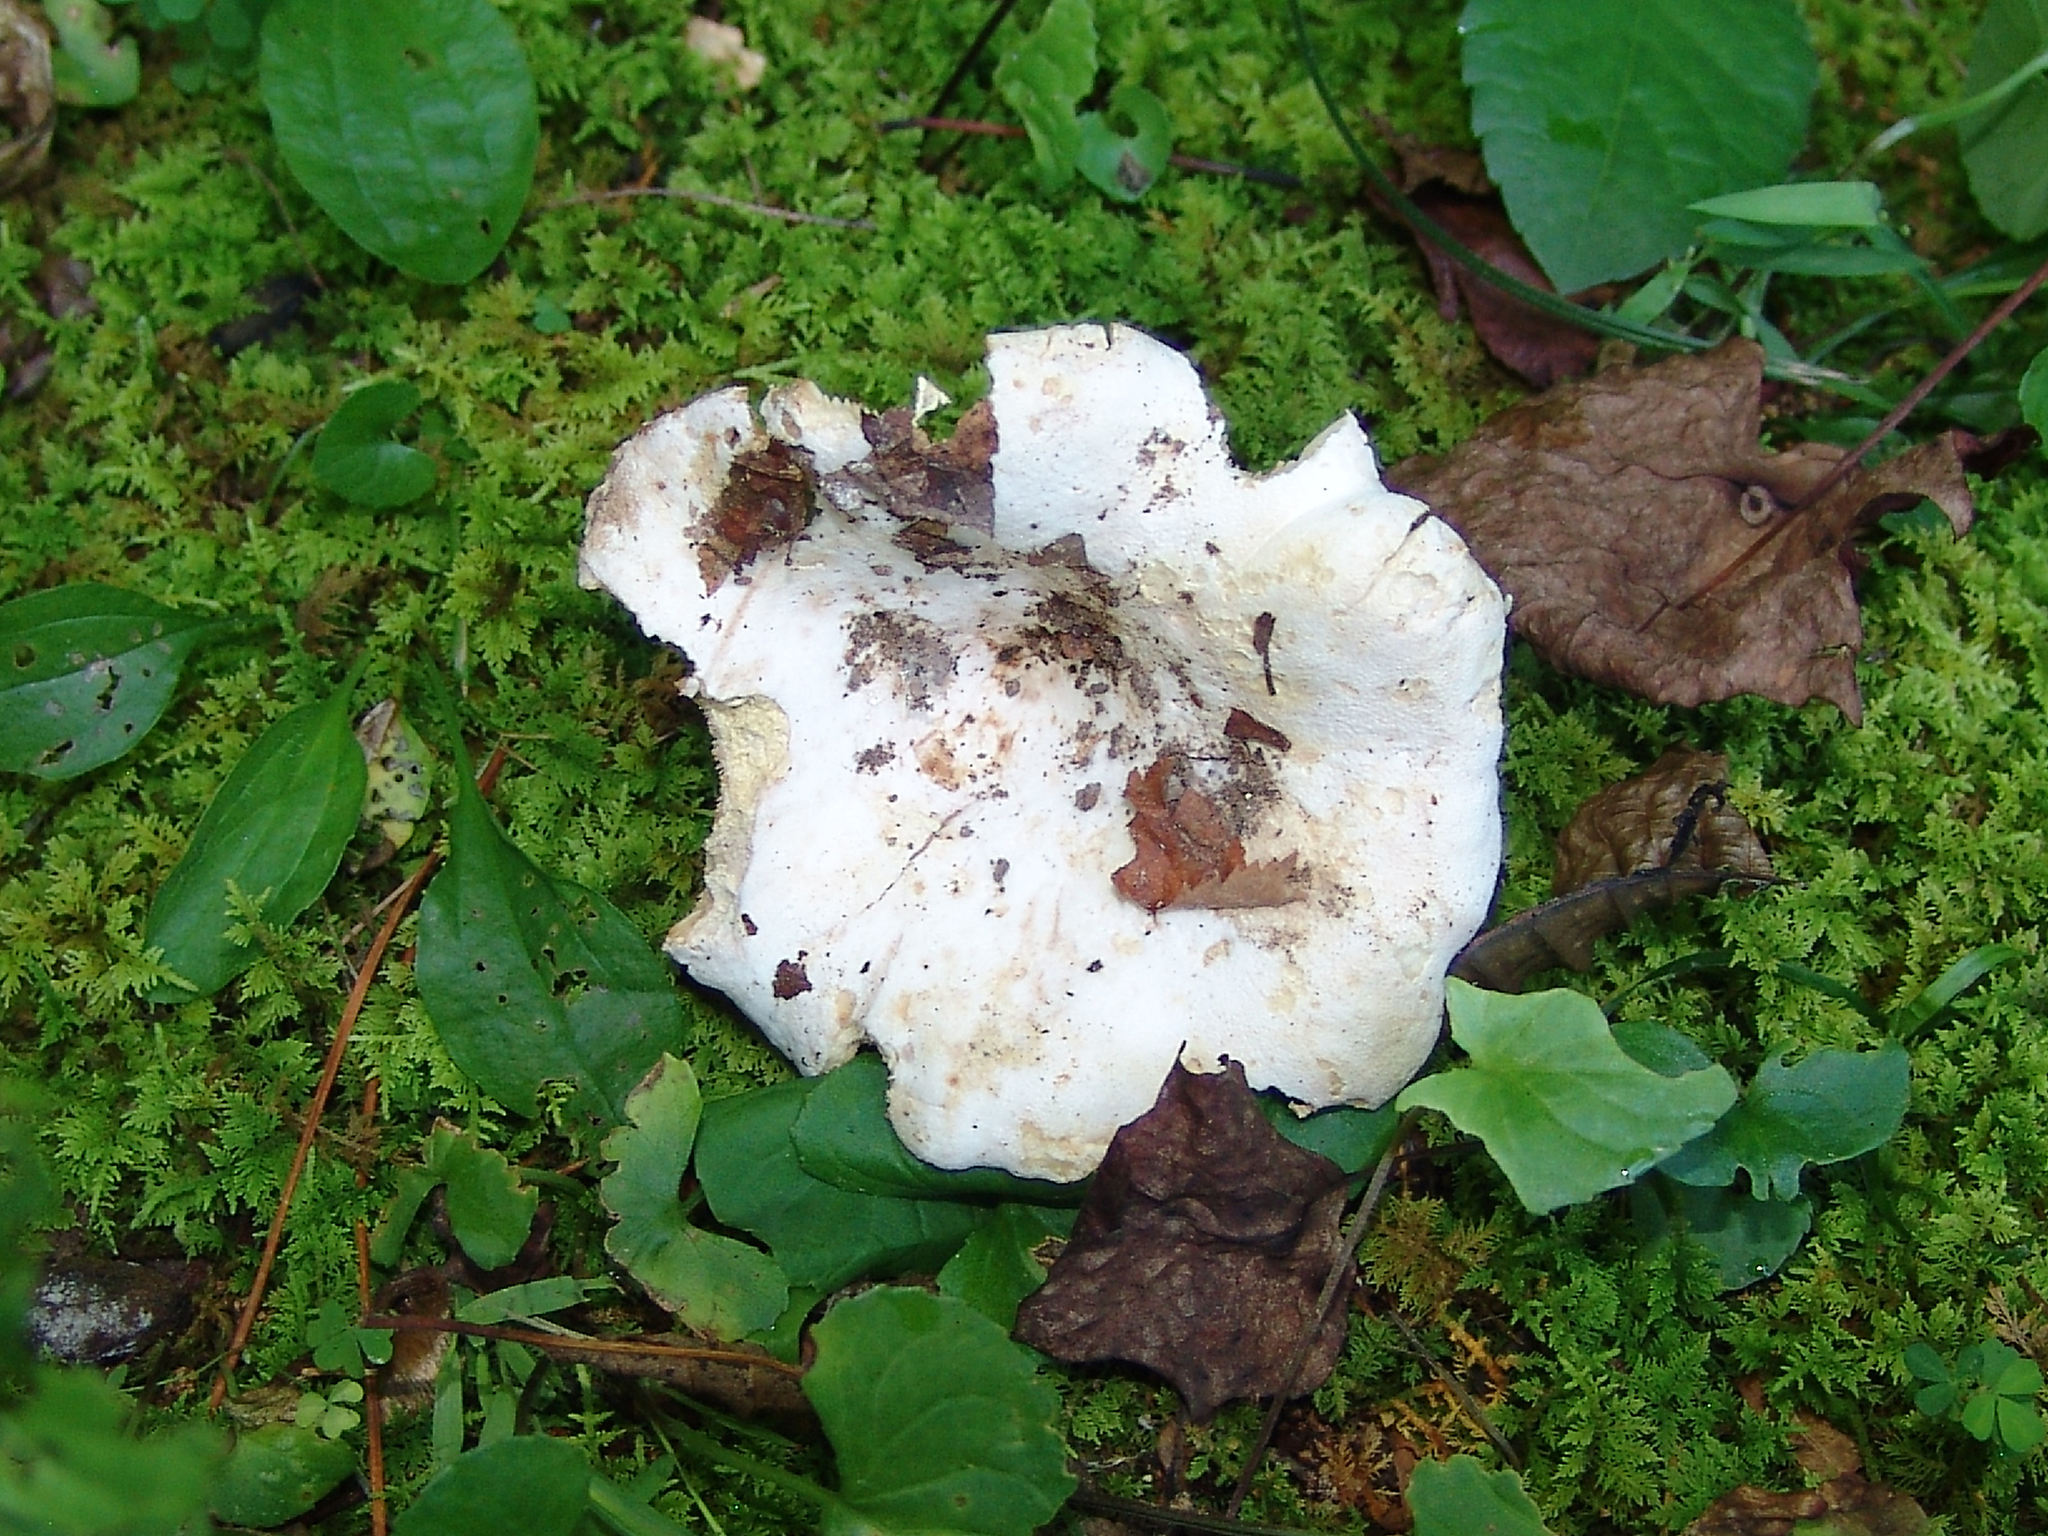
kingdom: Fungi
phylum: Basidiomycota
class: Agaricomycetes
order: Russulales
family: Russulaceae
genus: Lactifluus
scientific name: Lactifluus piperatus
